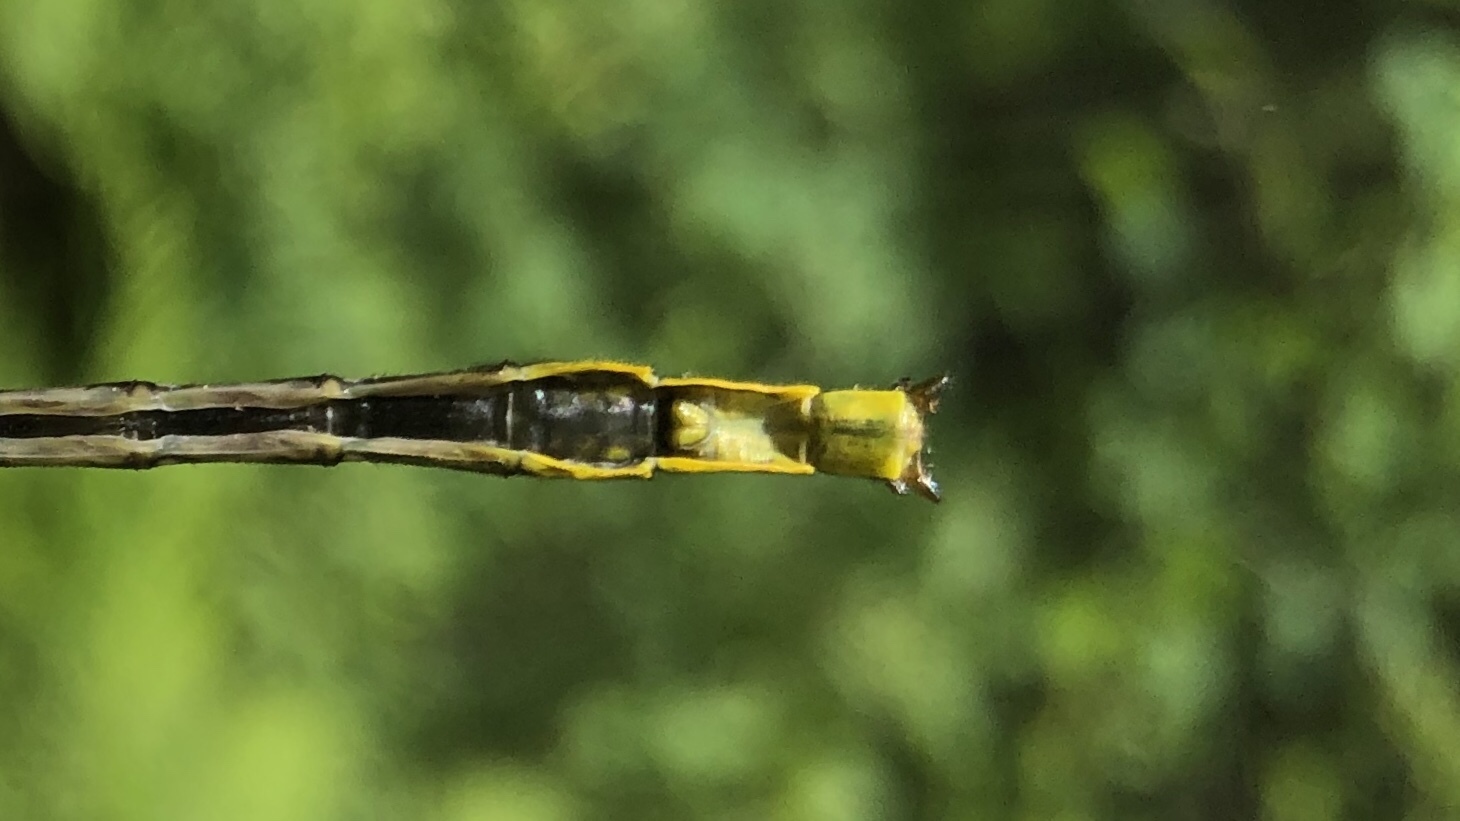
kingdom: Animalia
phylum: Arthropoda
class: Insecta
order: Odonata
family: Gomphidae
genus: Arigomphus
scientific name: Arigomphus furcifer
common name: Lilypad clubtail
